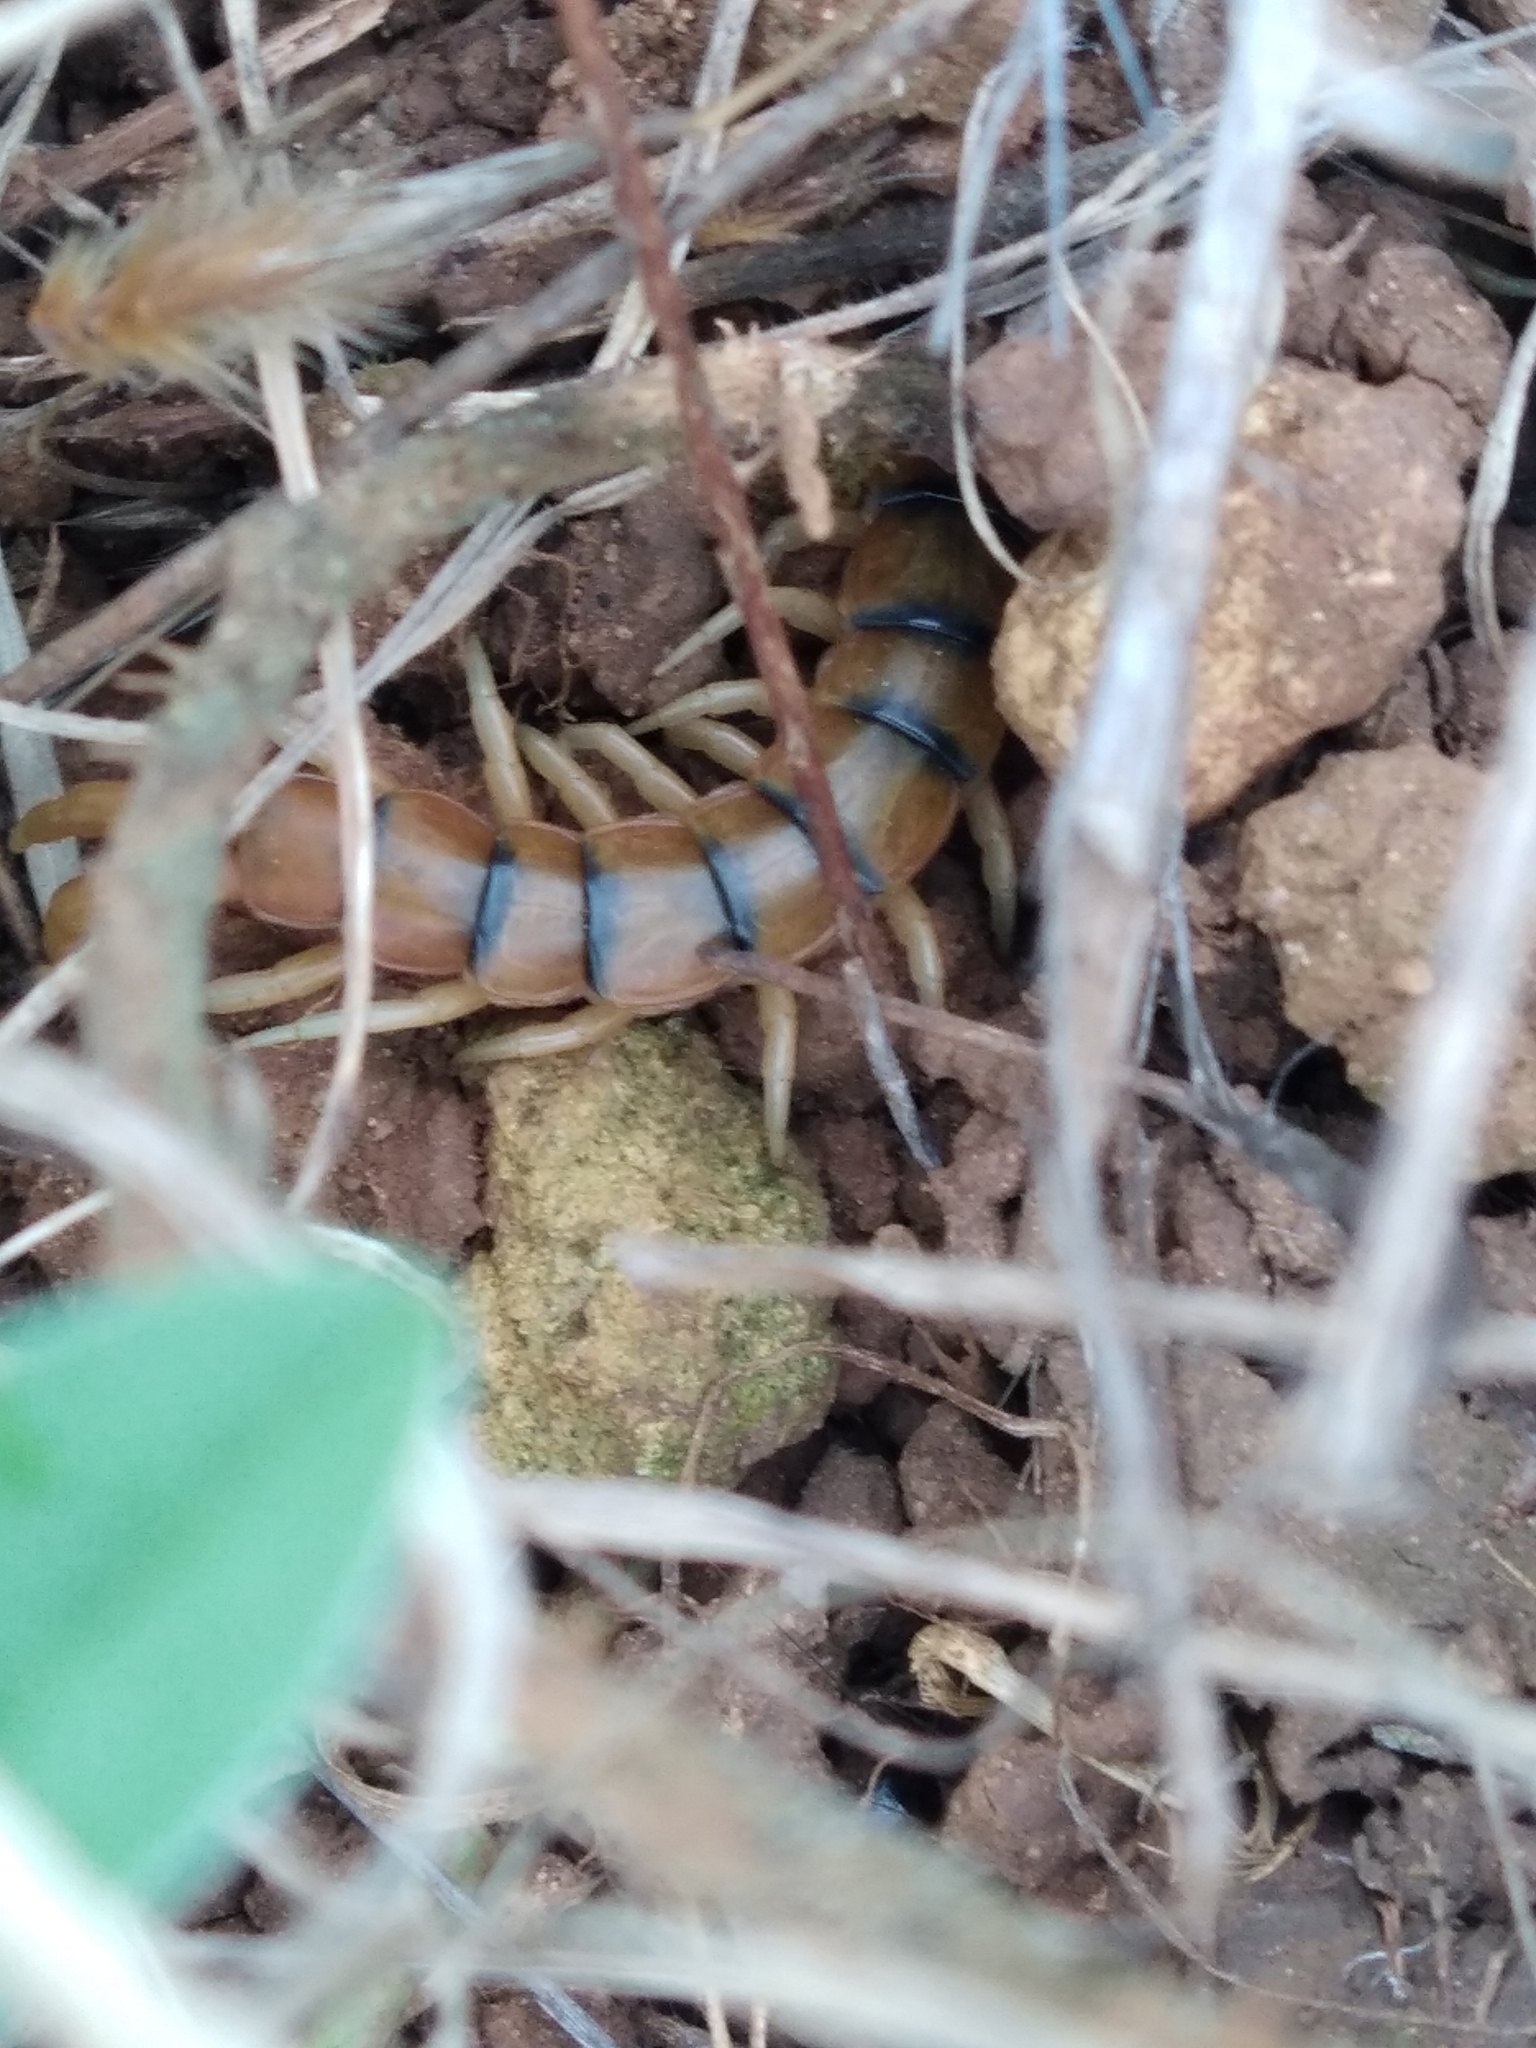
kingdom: Animalia
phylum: Arthropoda
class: Chilopoda
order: Scolopendromorpha
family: Scolopendridae
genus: Scolopendra
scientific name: Scolopendra cingulata
